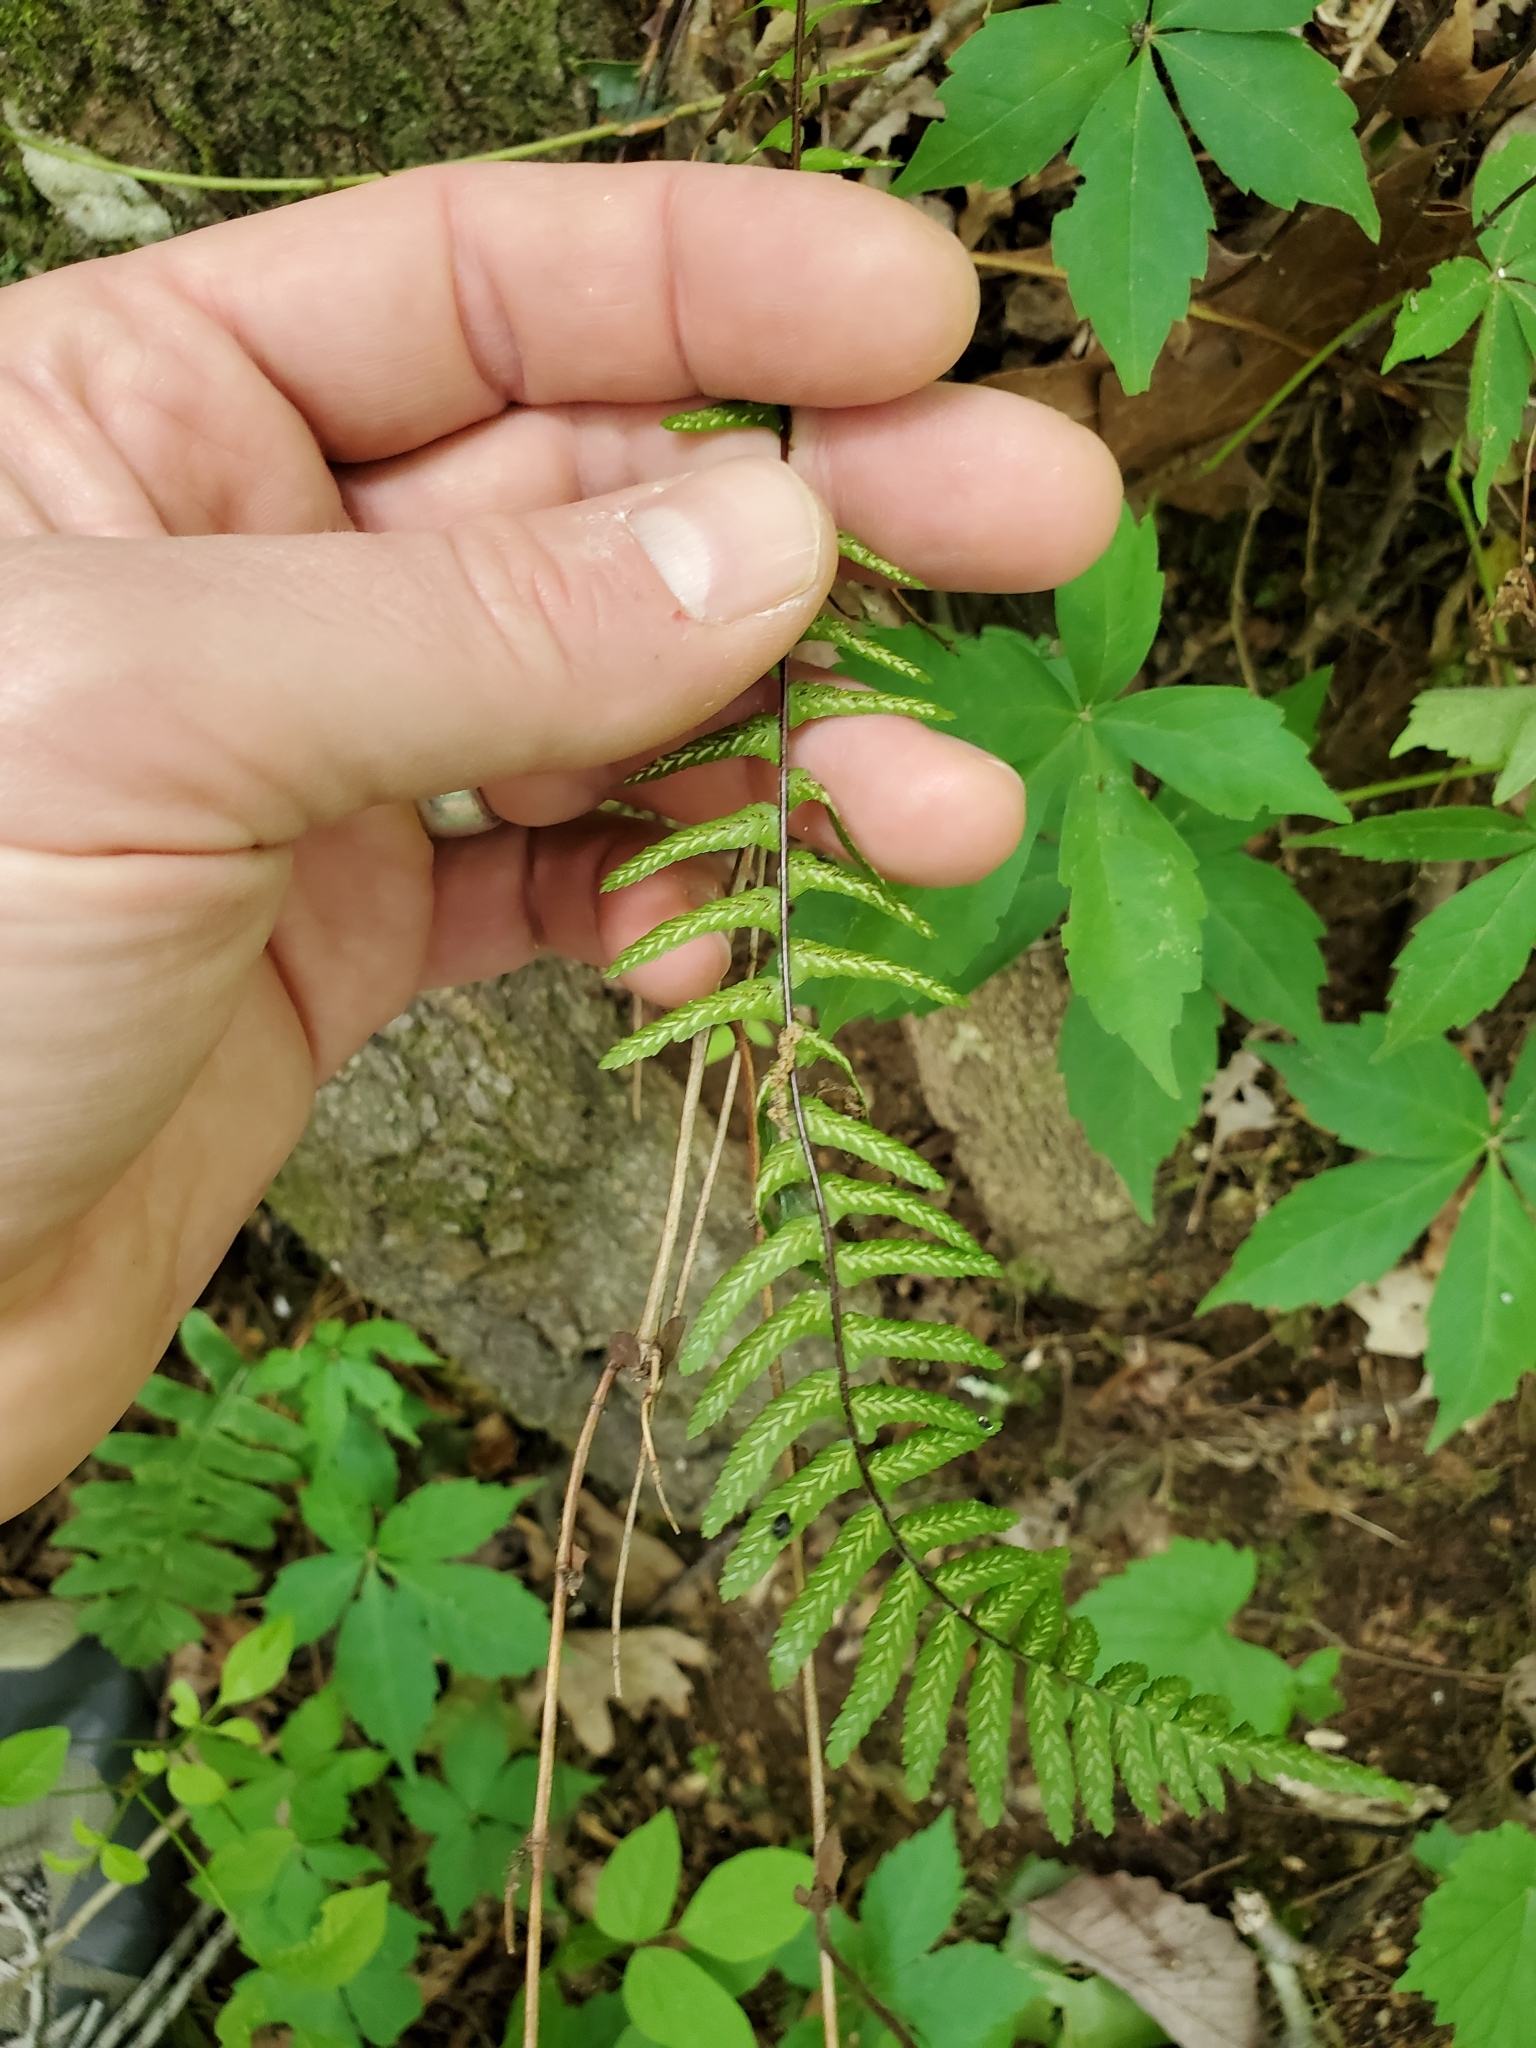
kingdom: Plantae
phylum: Tracheophyta
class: Polypodiopsida
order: Polypodiales
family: Aspleniaceae
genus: Asplenium
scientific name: Asplenium platyneuron
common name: Ebony spleenwort
